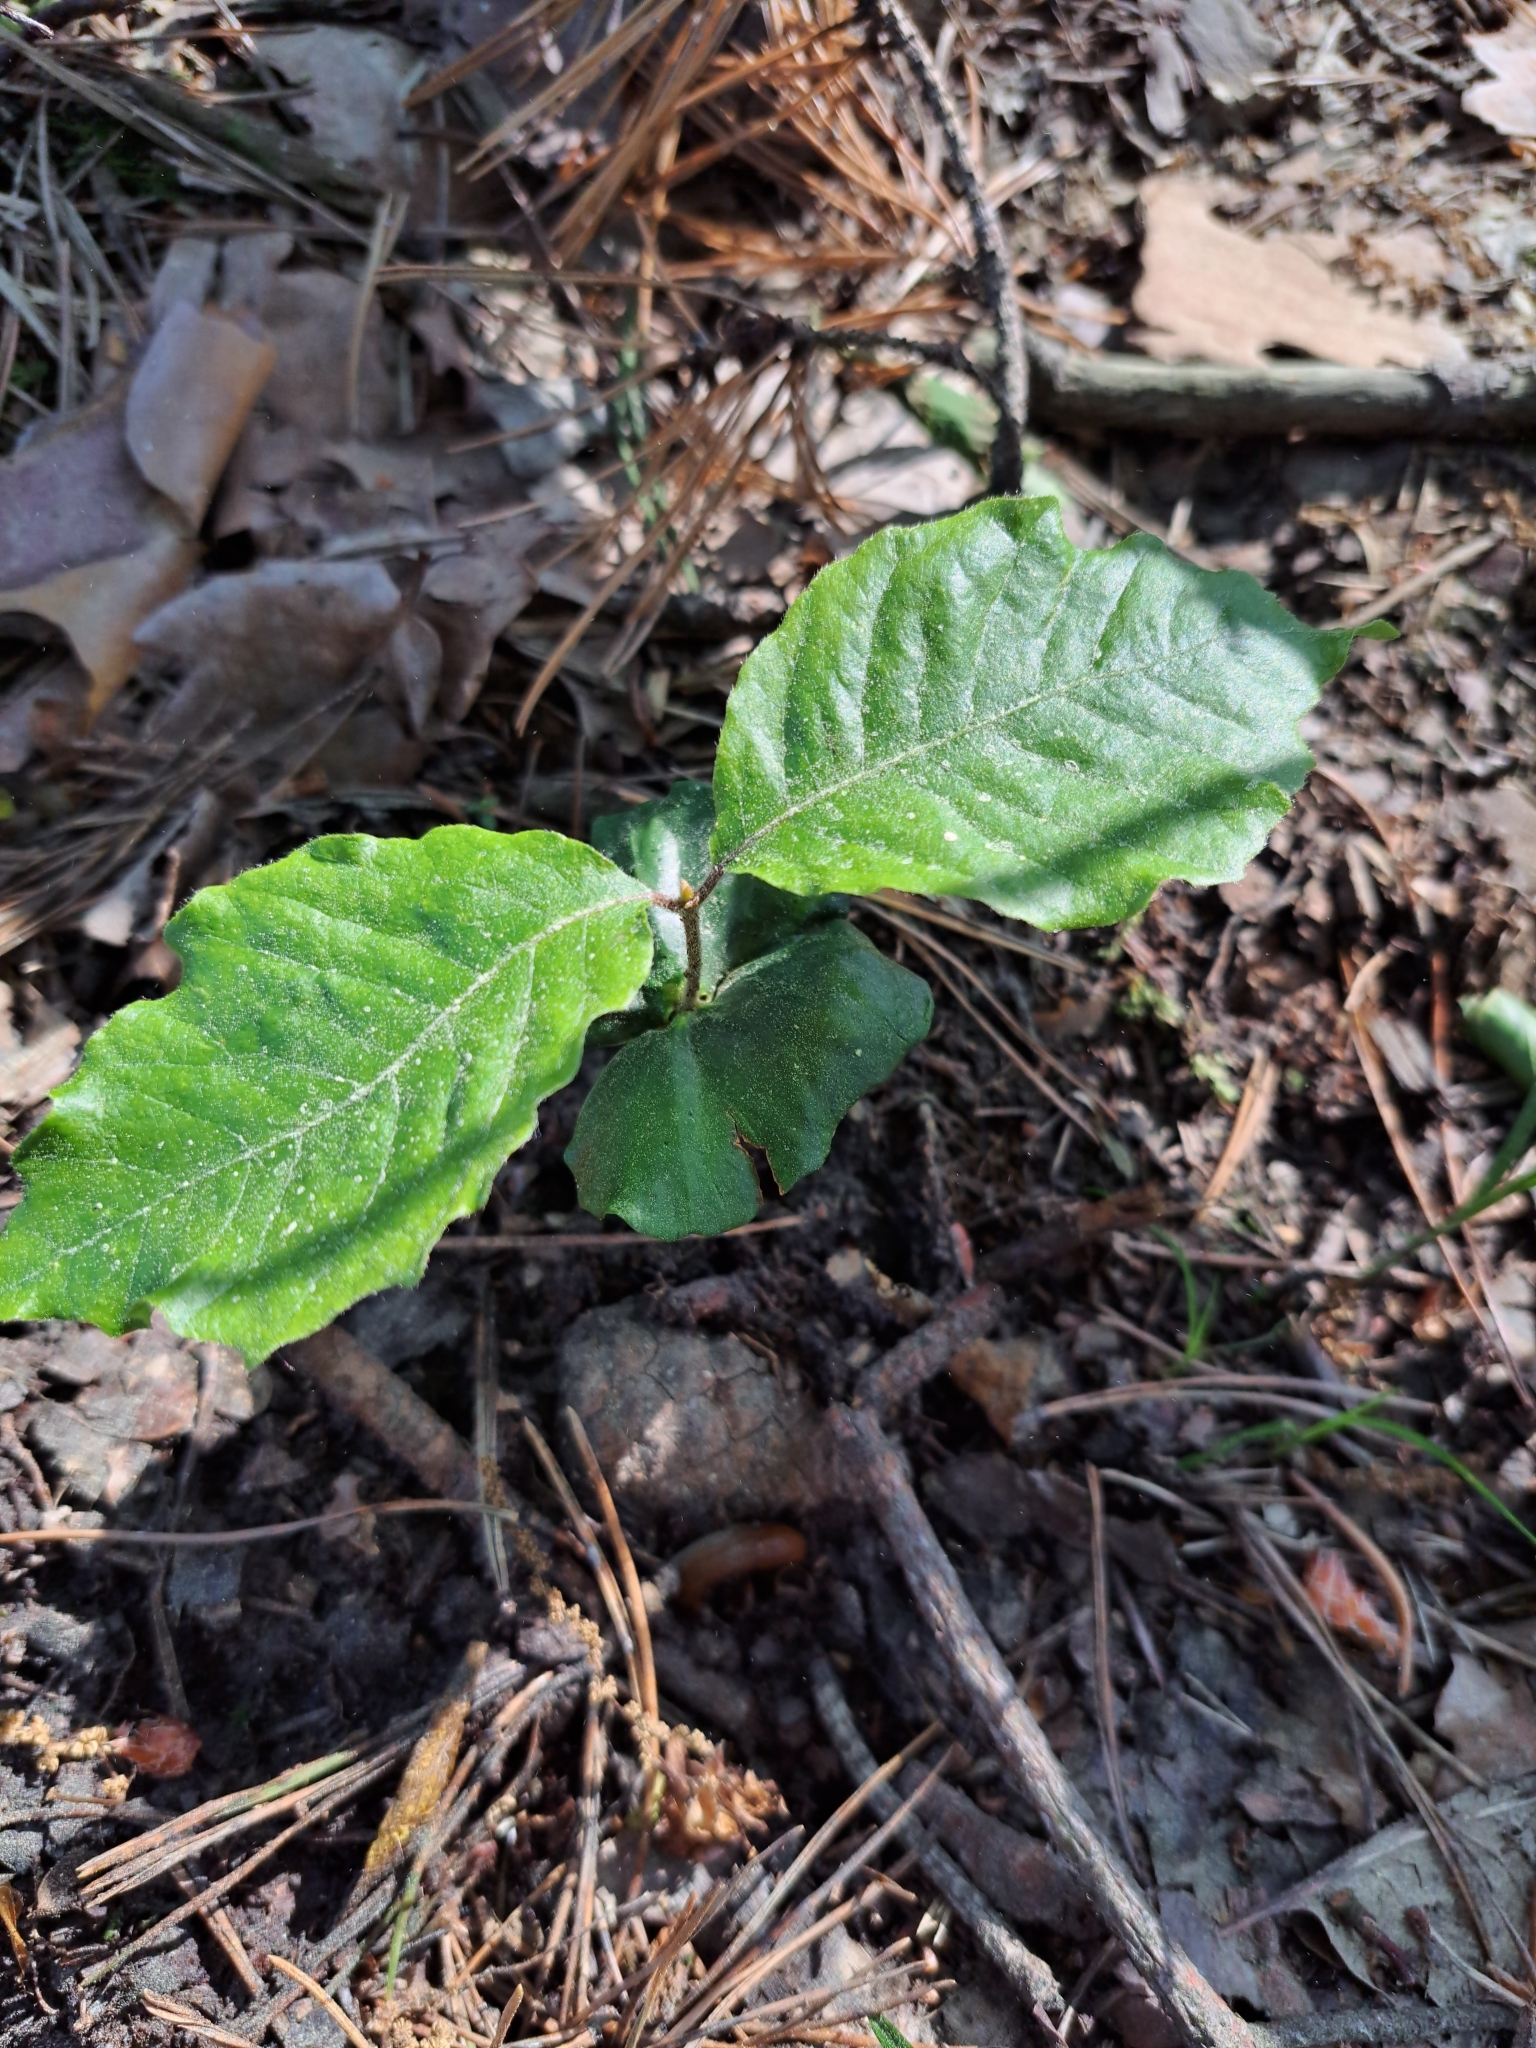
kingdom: Plantae
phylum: Tracheophyta
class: Magnoliopsida
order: Fagales
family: Fagaceae
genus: Fagus
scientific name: Fagus sylvatica
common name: Beech
